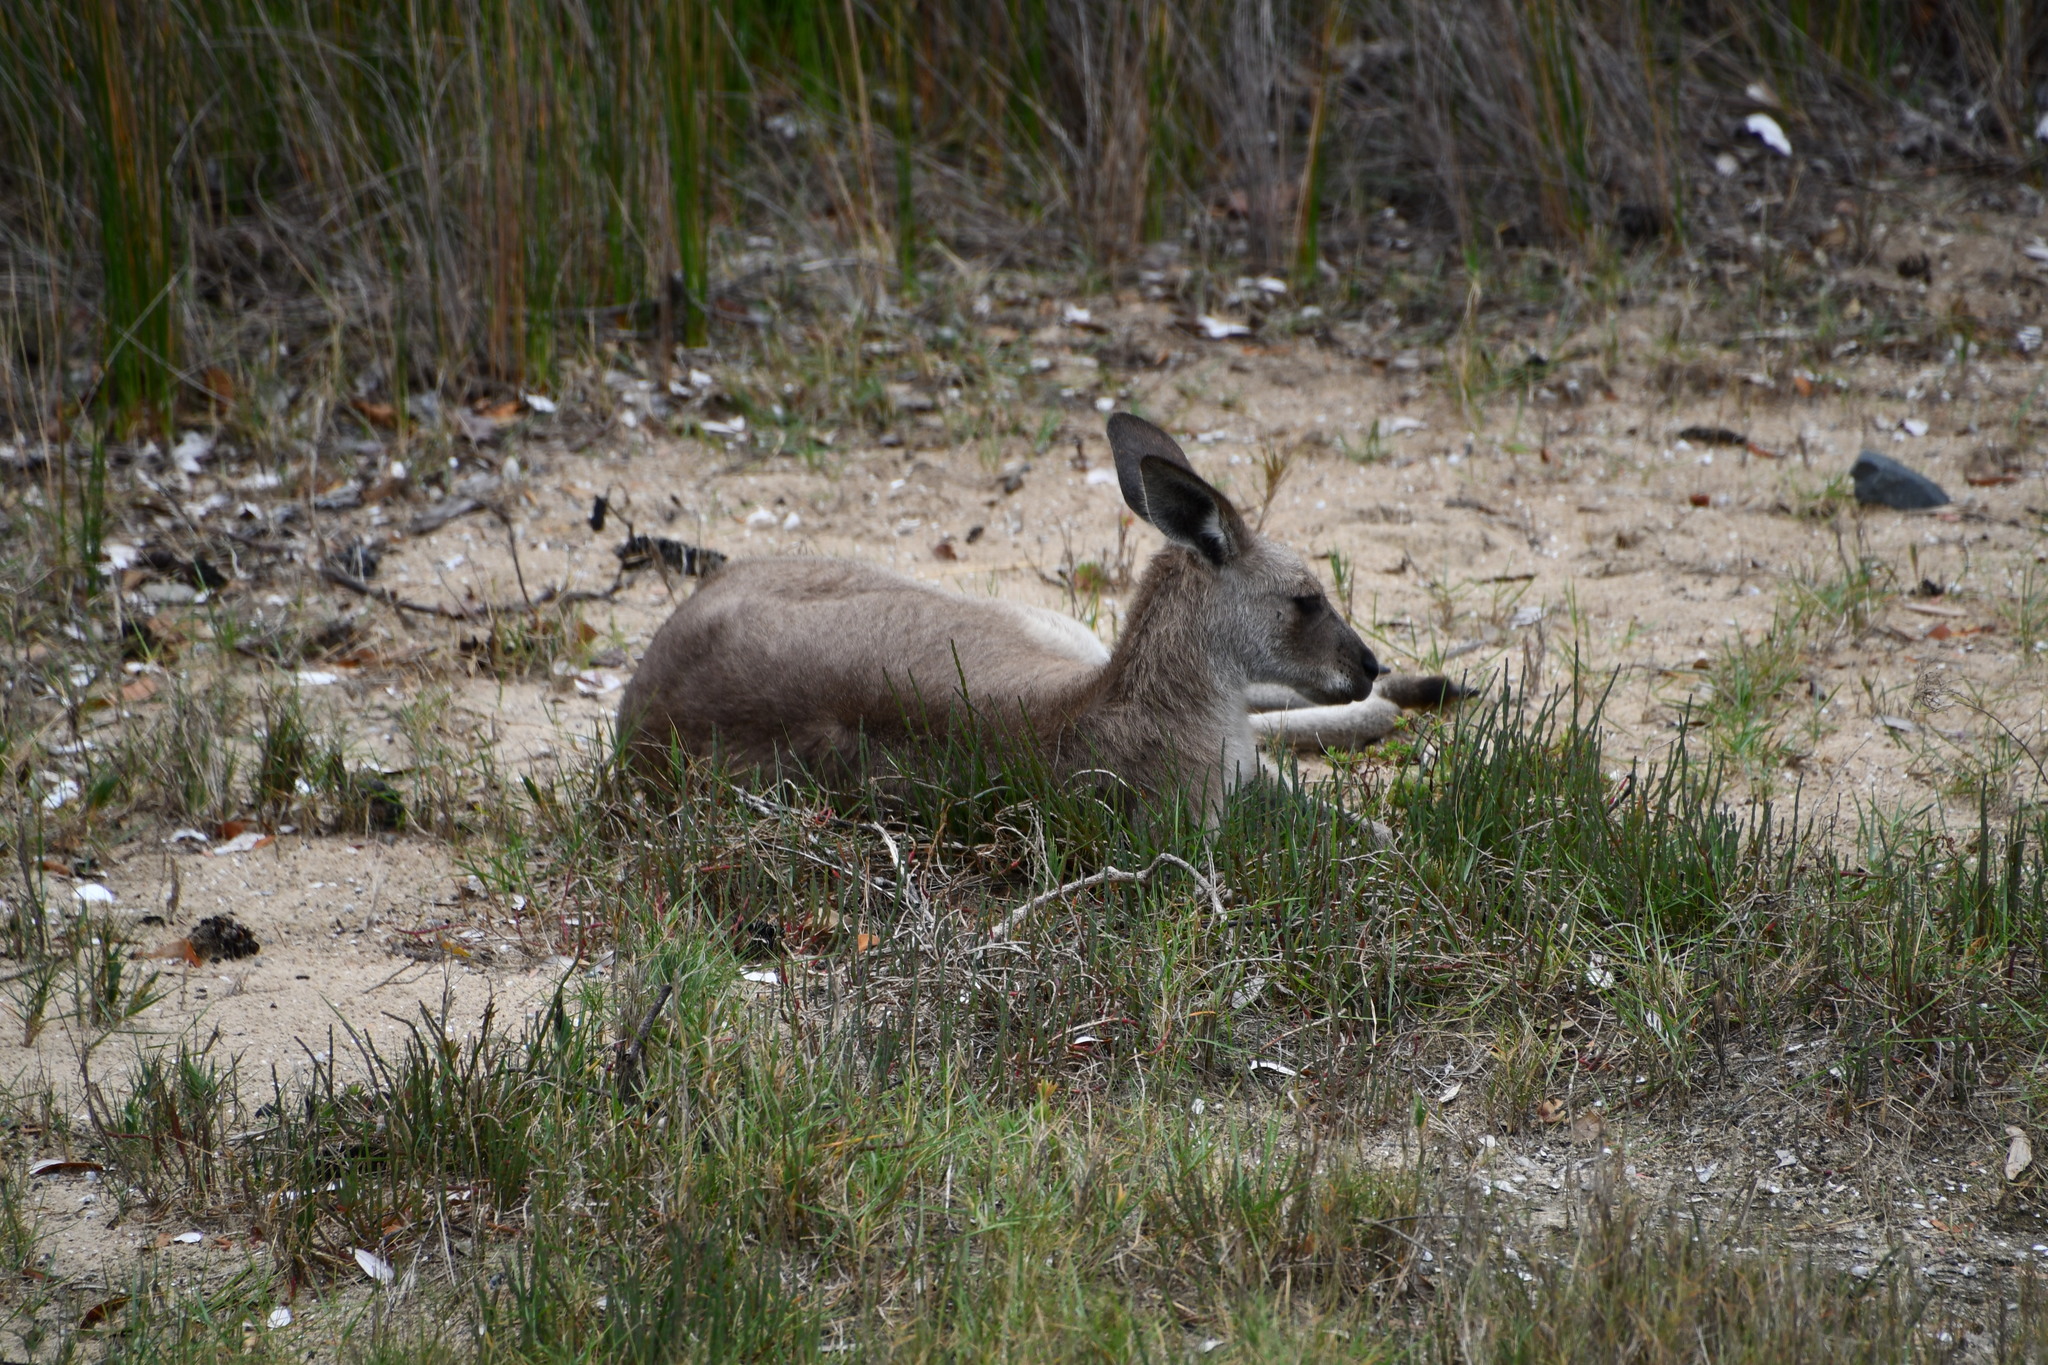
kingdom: Animalia
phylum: Chordata
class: Mammalia
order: Diprotodontia
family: Macropodidae
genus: Macropus
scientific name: Macropus giganteus
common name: Eastern grey kangaroo
